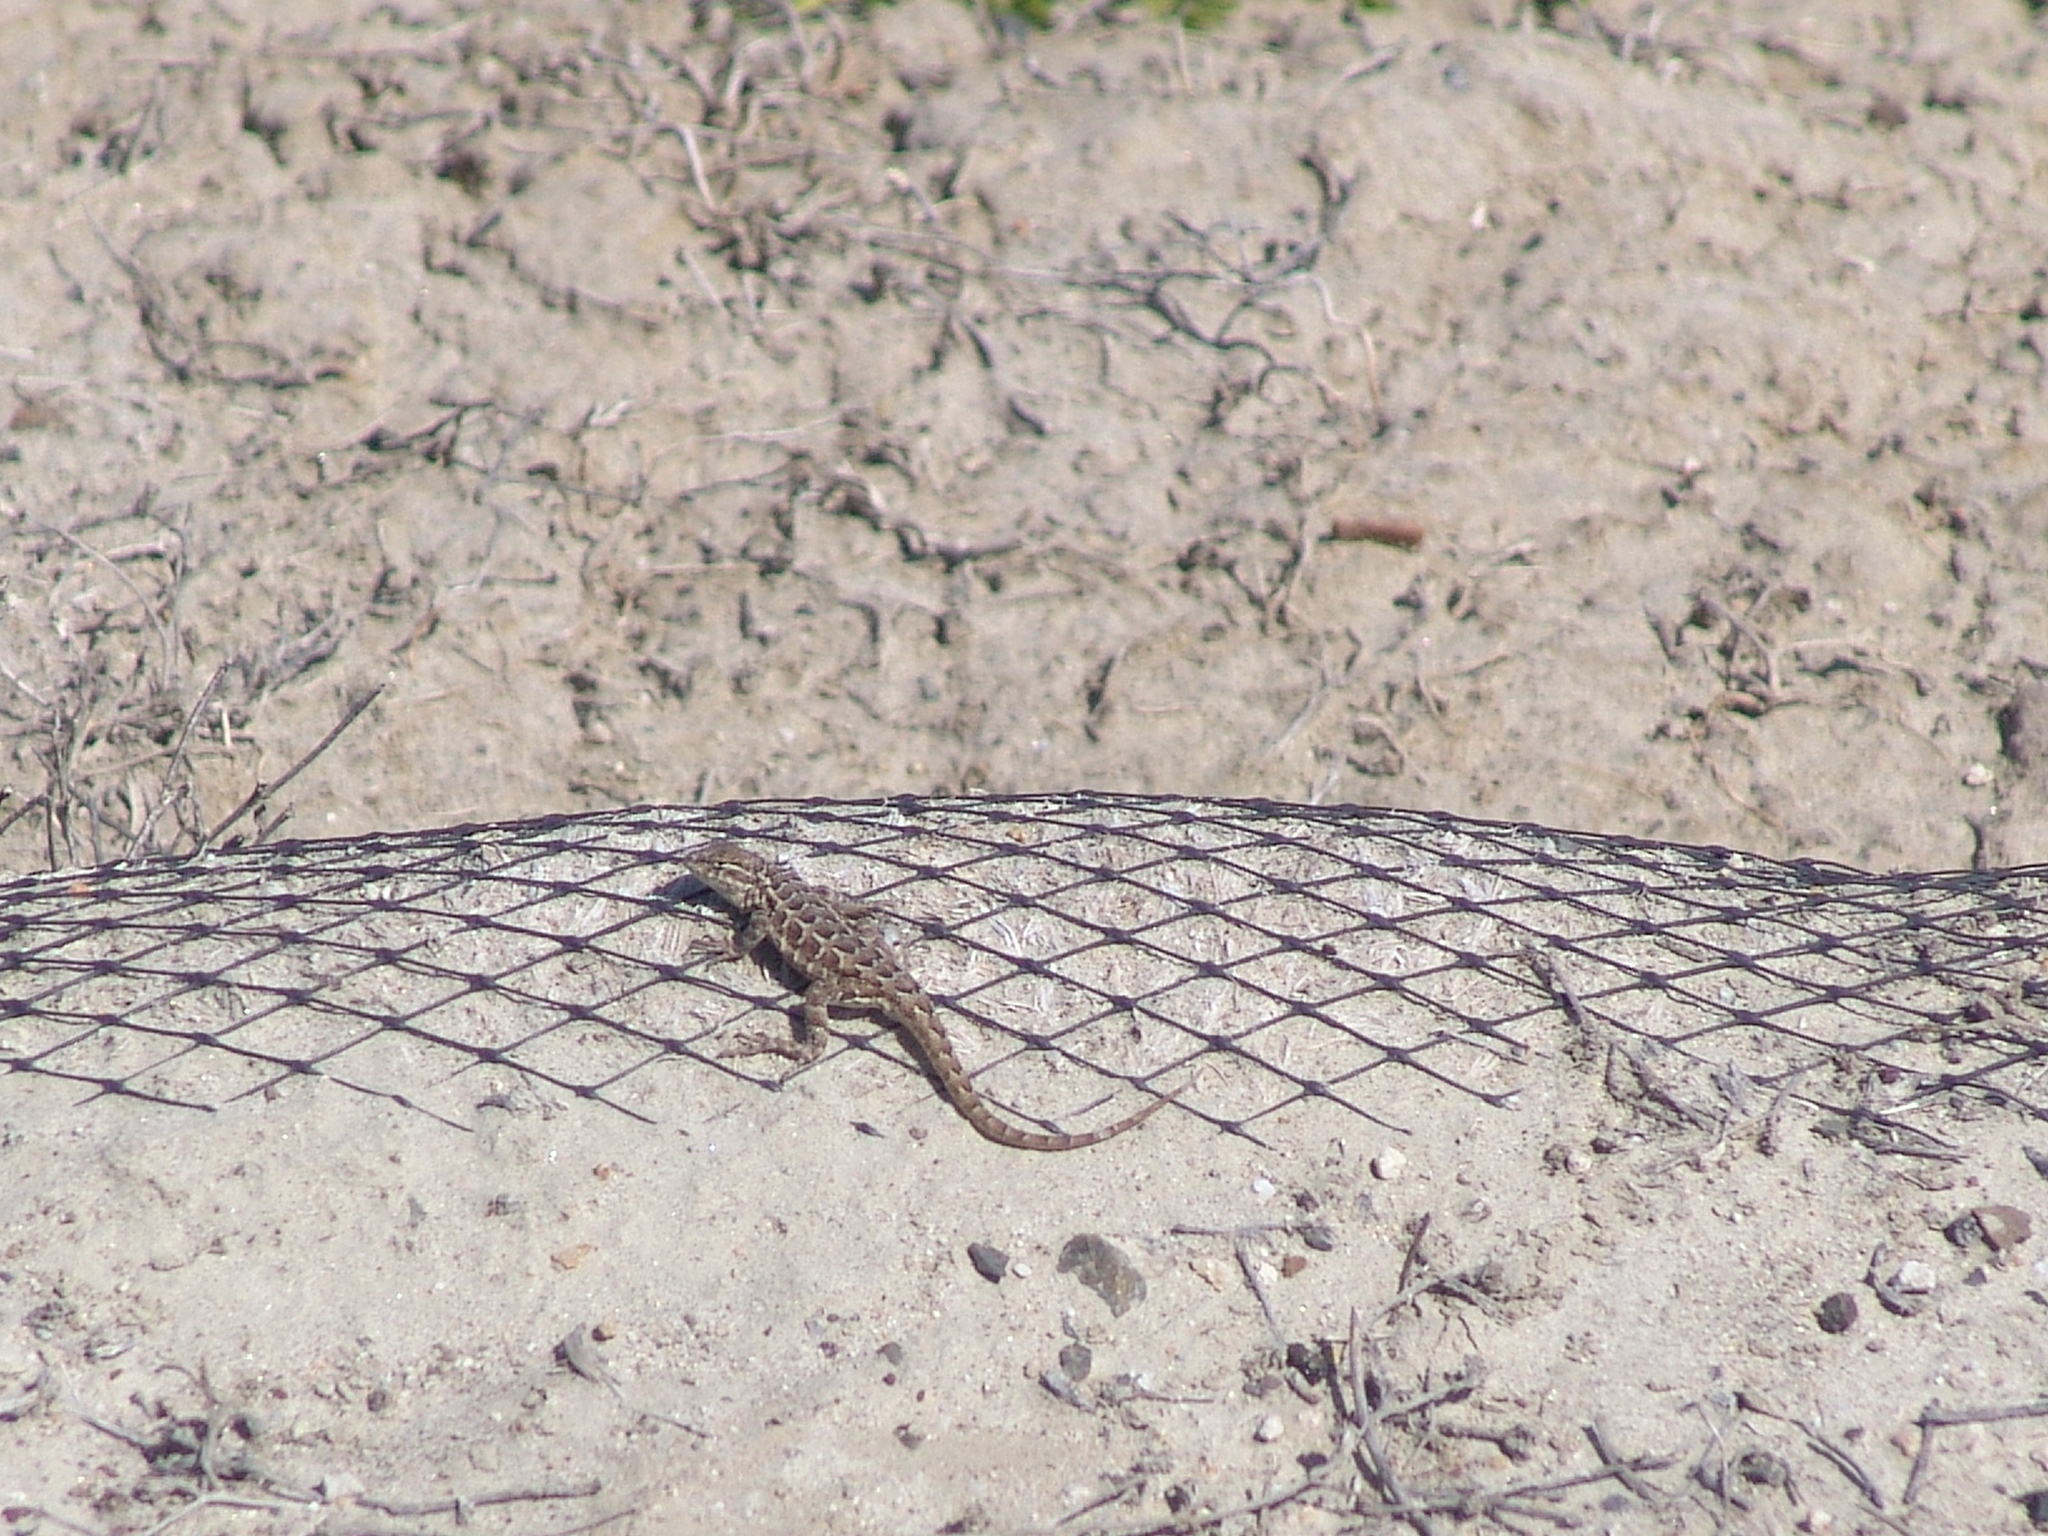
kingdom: Animalia
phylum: Chordata
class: Squamata
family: Phrynosomatidae
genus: Uta
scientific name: Uta stansburiana
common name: Side-blotched lizard
